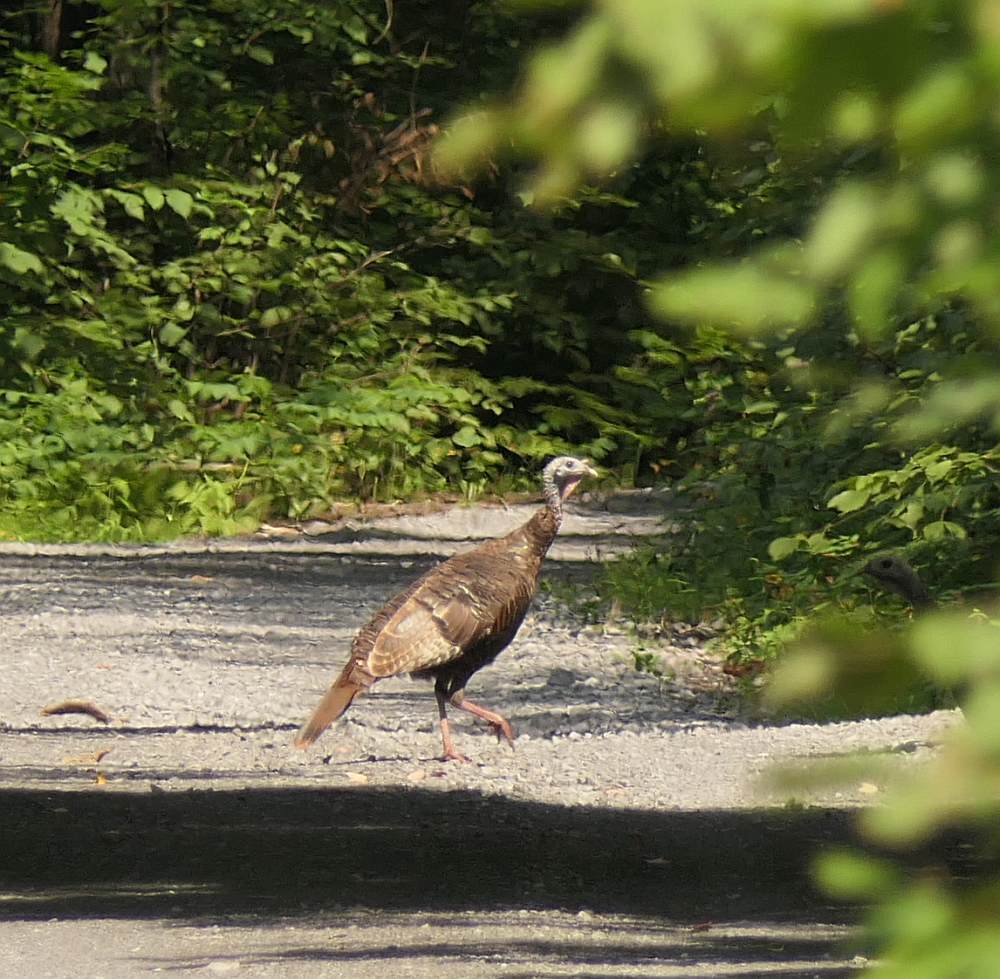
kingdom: Animalia
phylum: Chordata
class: Aves
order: Galliformes
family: Phasianidae
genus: Meleagris
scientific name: Meleagris gallopavo
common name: Wild turkey
